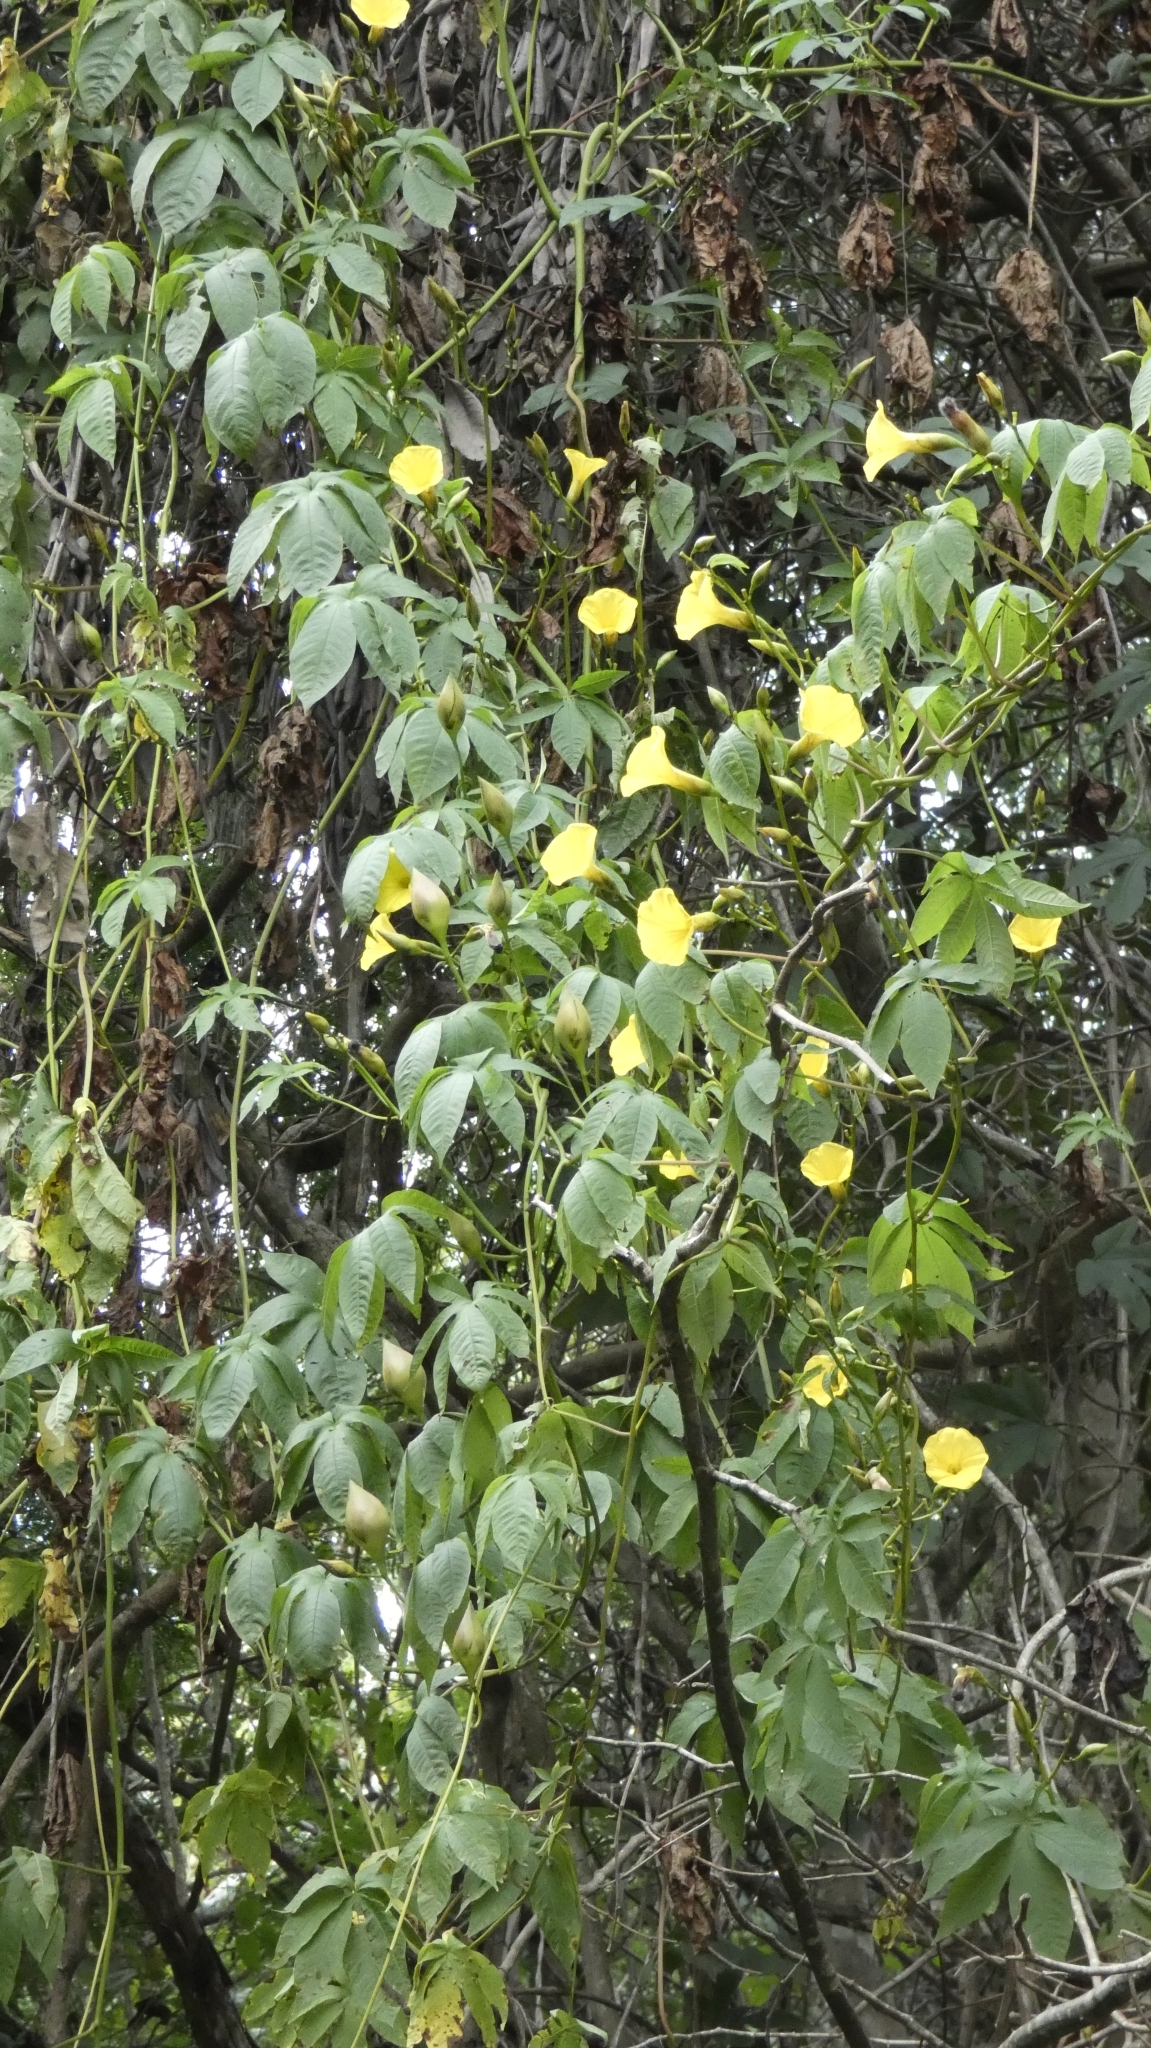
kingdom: Plantae
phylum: Tracheophyta
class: Magnoliopsida
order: Solanales
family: Convolvulaceae
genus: Distimake
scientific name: Distimake tuberosus
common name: Spanish arborvine
